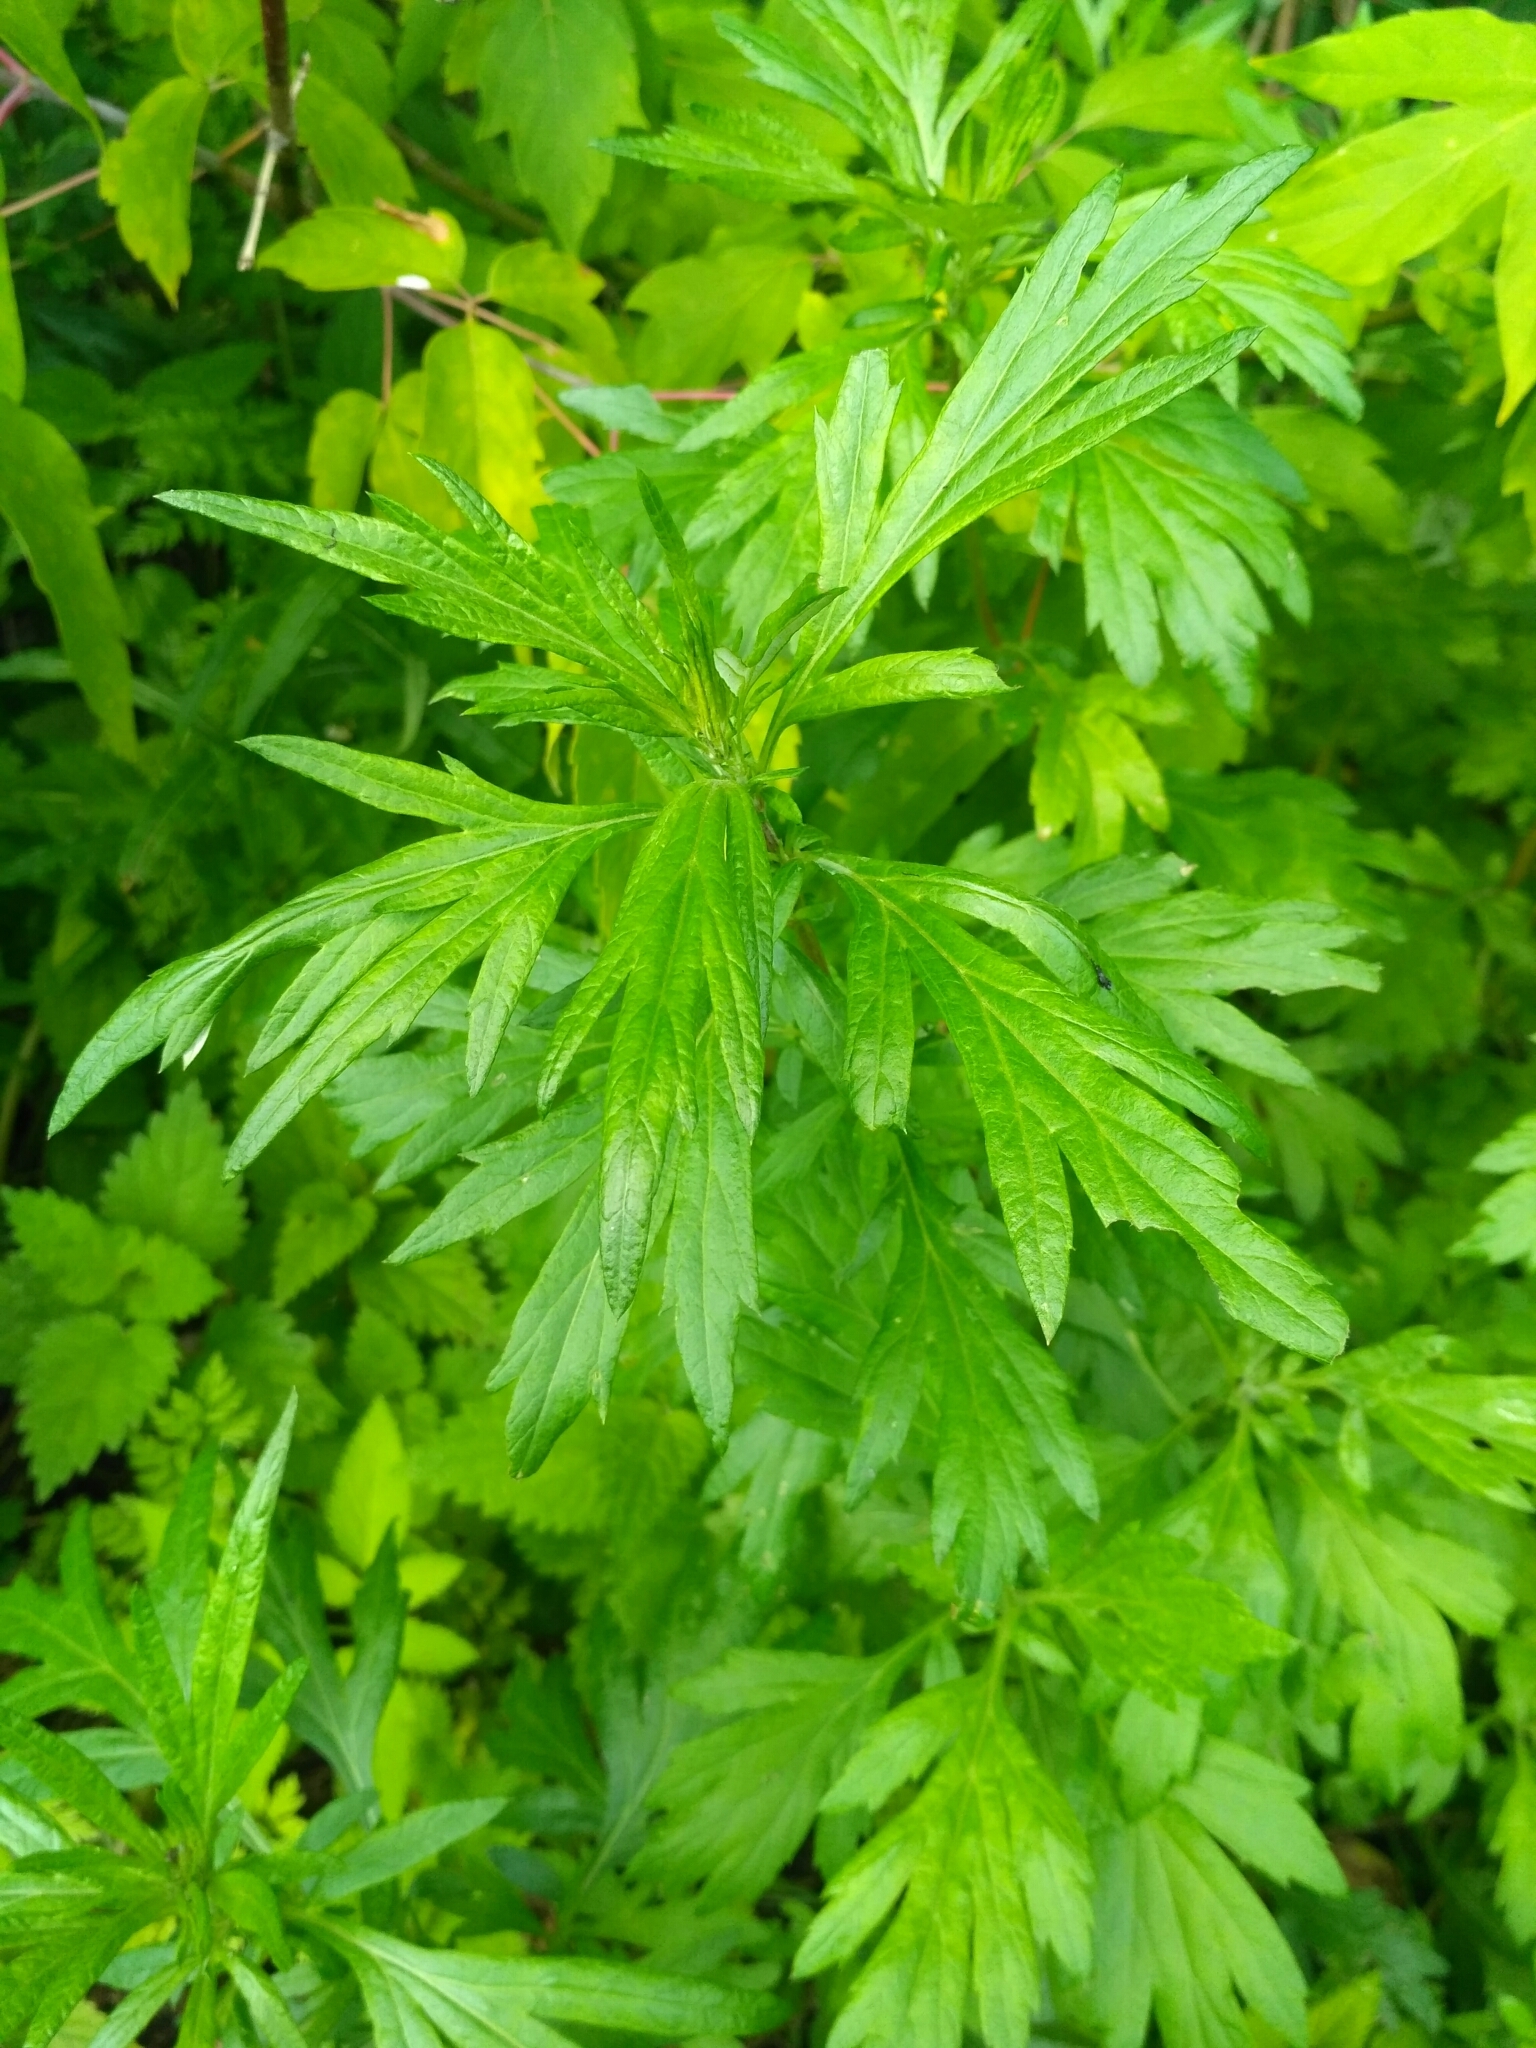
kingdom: Plantae
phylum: Tracheophyta
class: Magnoliopsida
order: Asterales
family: Asteraceae
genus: Artemisia
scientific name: Artemisia vulgaris
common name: Mugwort
